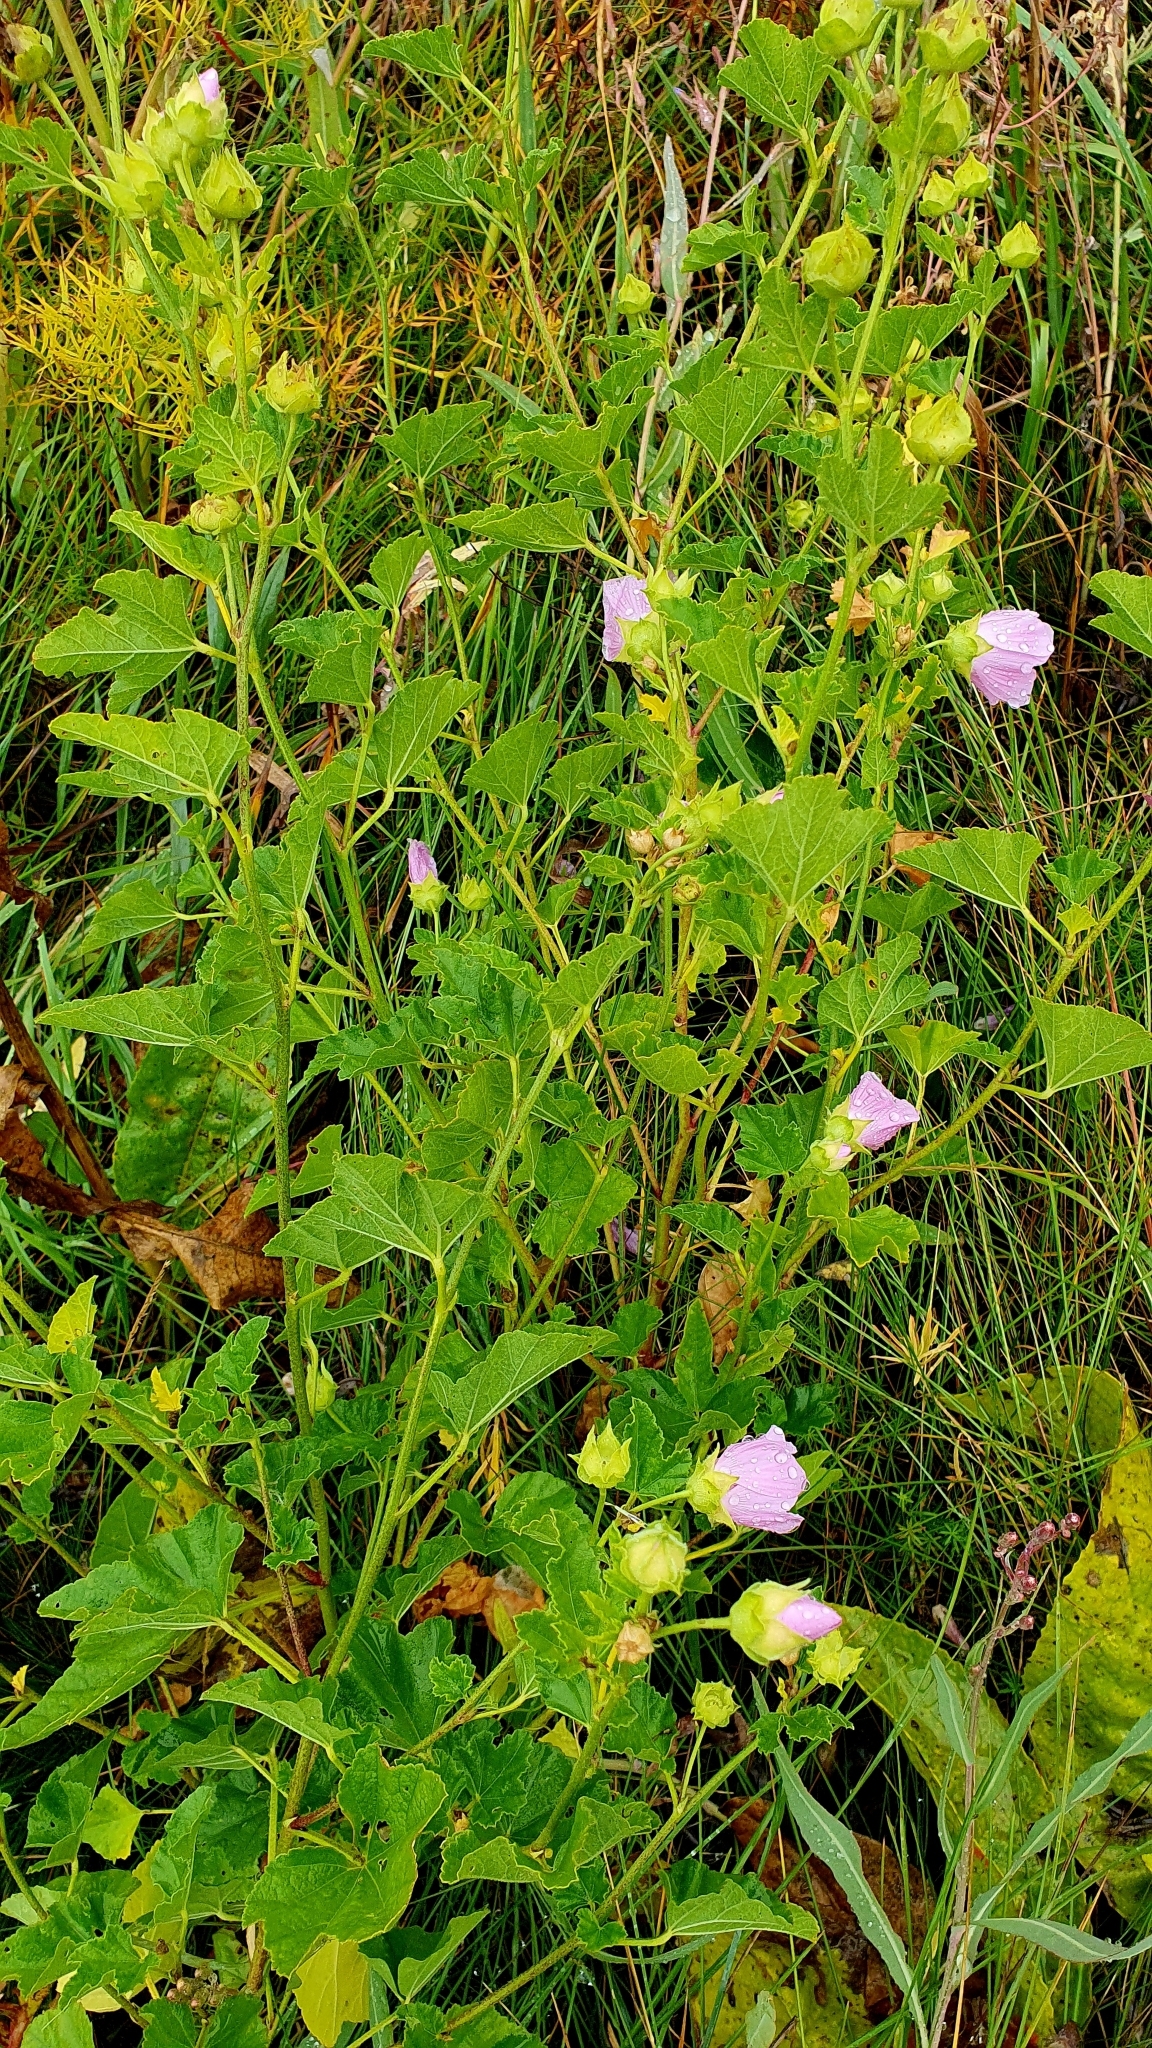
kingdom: Plantae
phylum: Tracheophyta
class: Magnoliopsida
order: Malvales
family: Malvaceae
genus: Malva
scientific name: Malva thuringiaca
